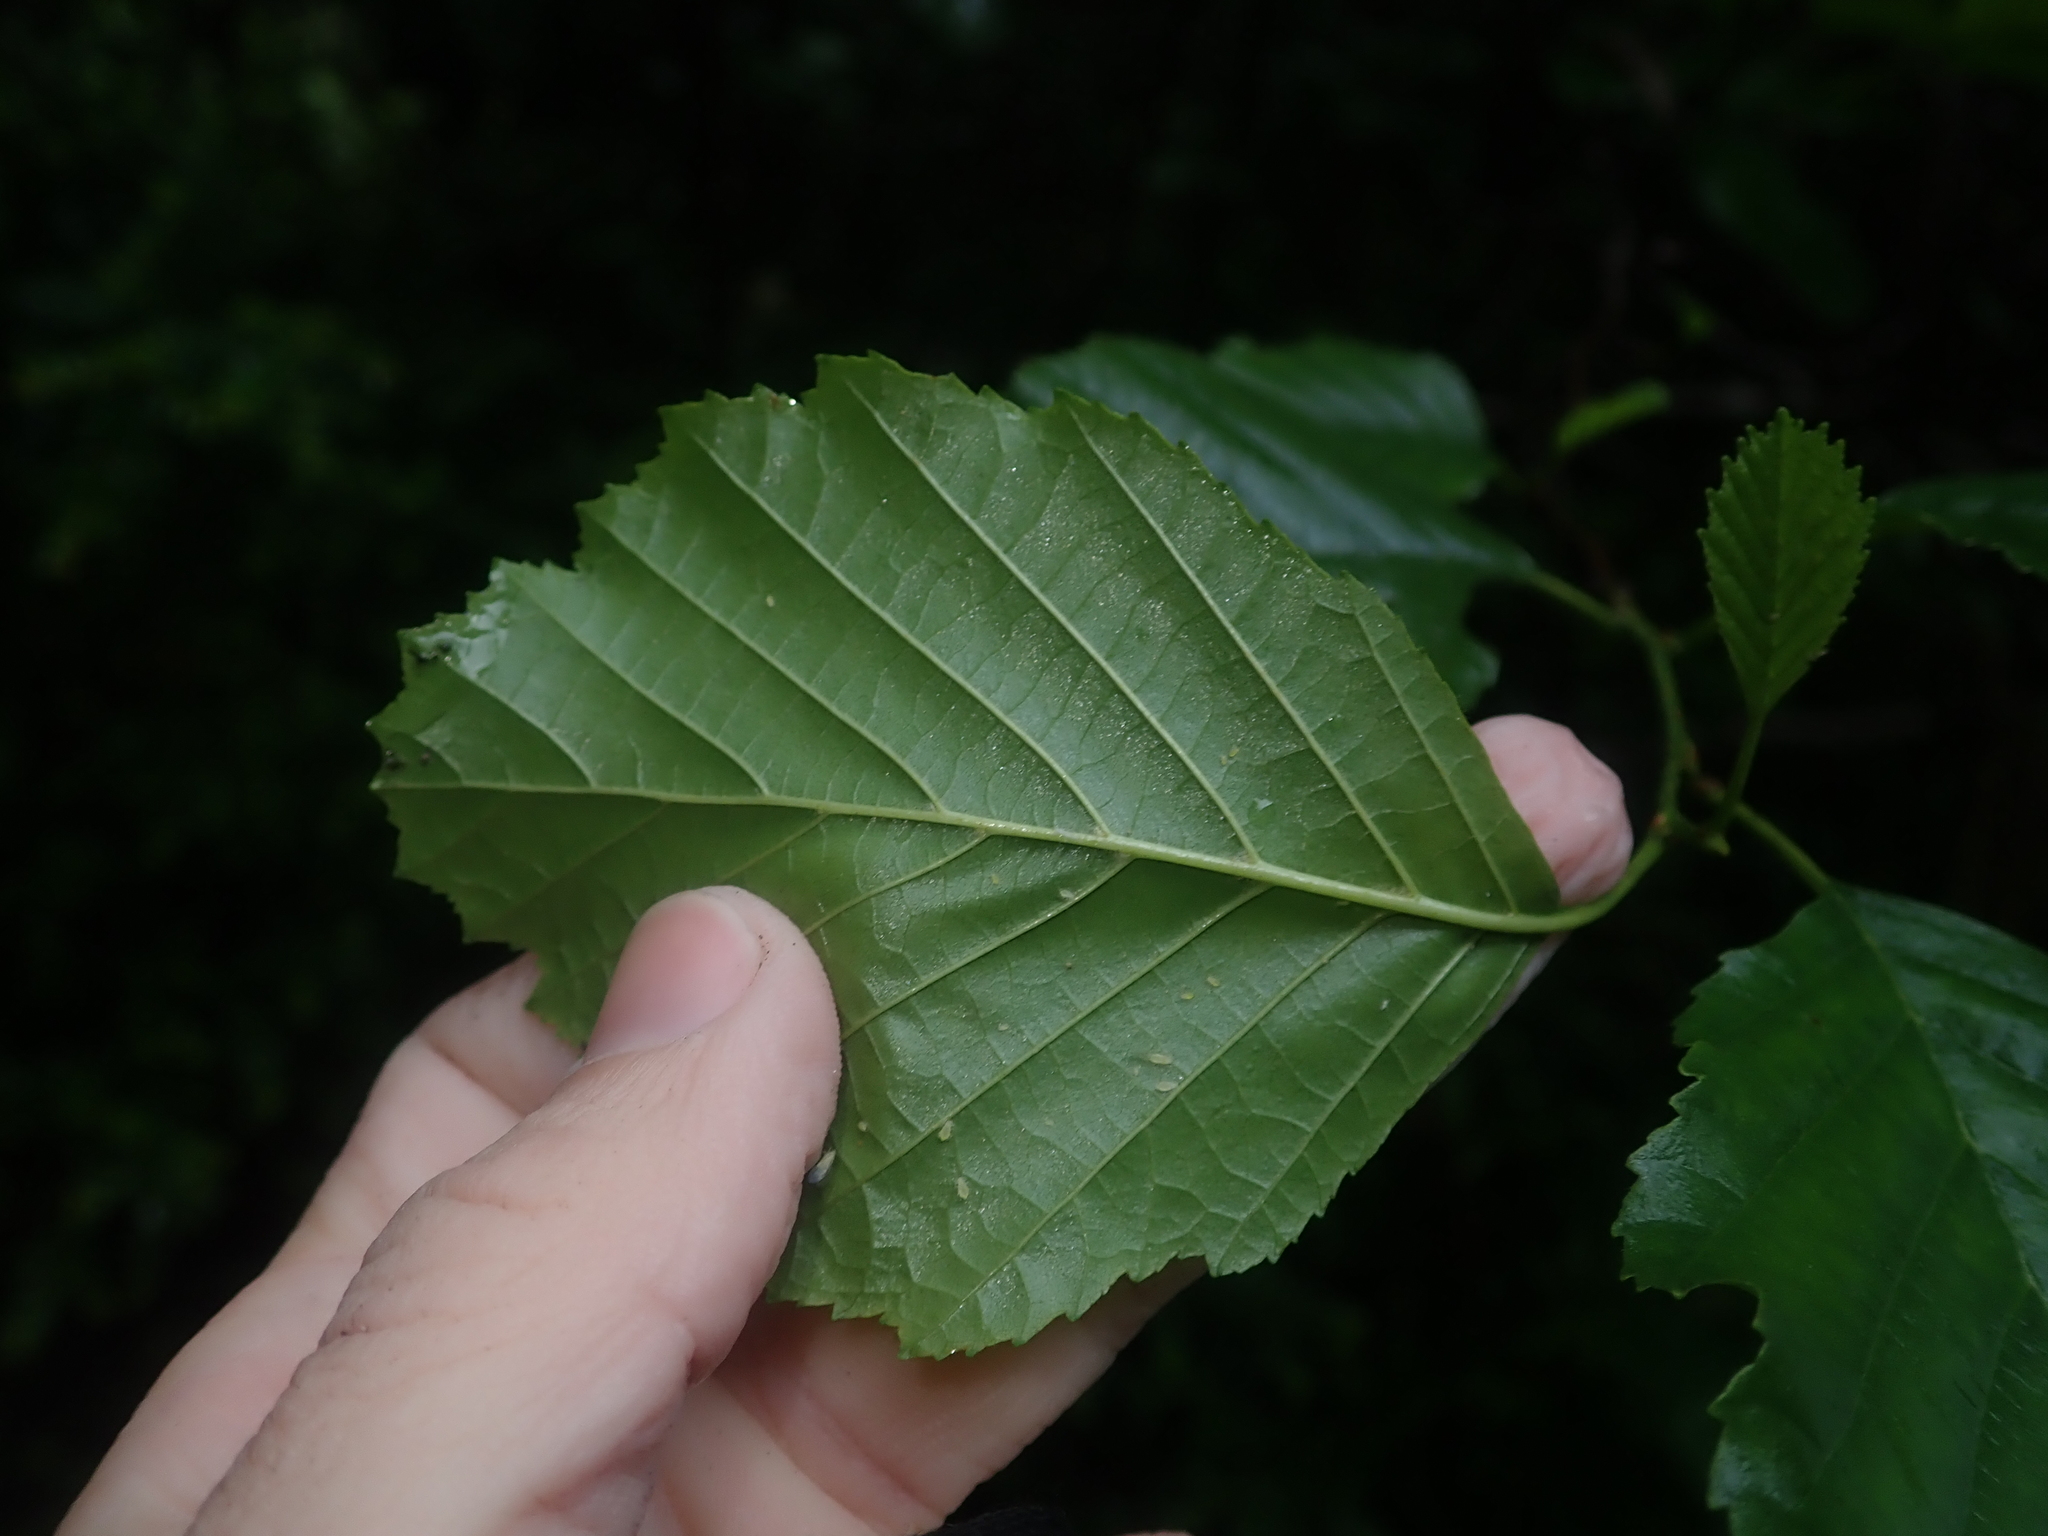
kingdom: Plantae
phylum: Tracheophyta
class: Magnoliopsida
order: Fagales
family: Betulaceae
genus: Alnus
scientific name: Alnus glutinosa
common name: Black alder
